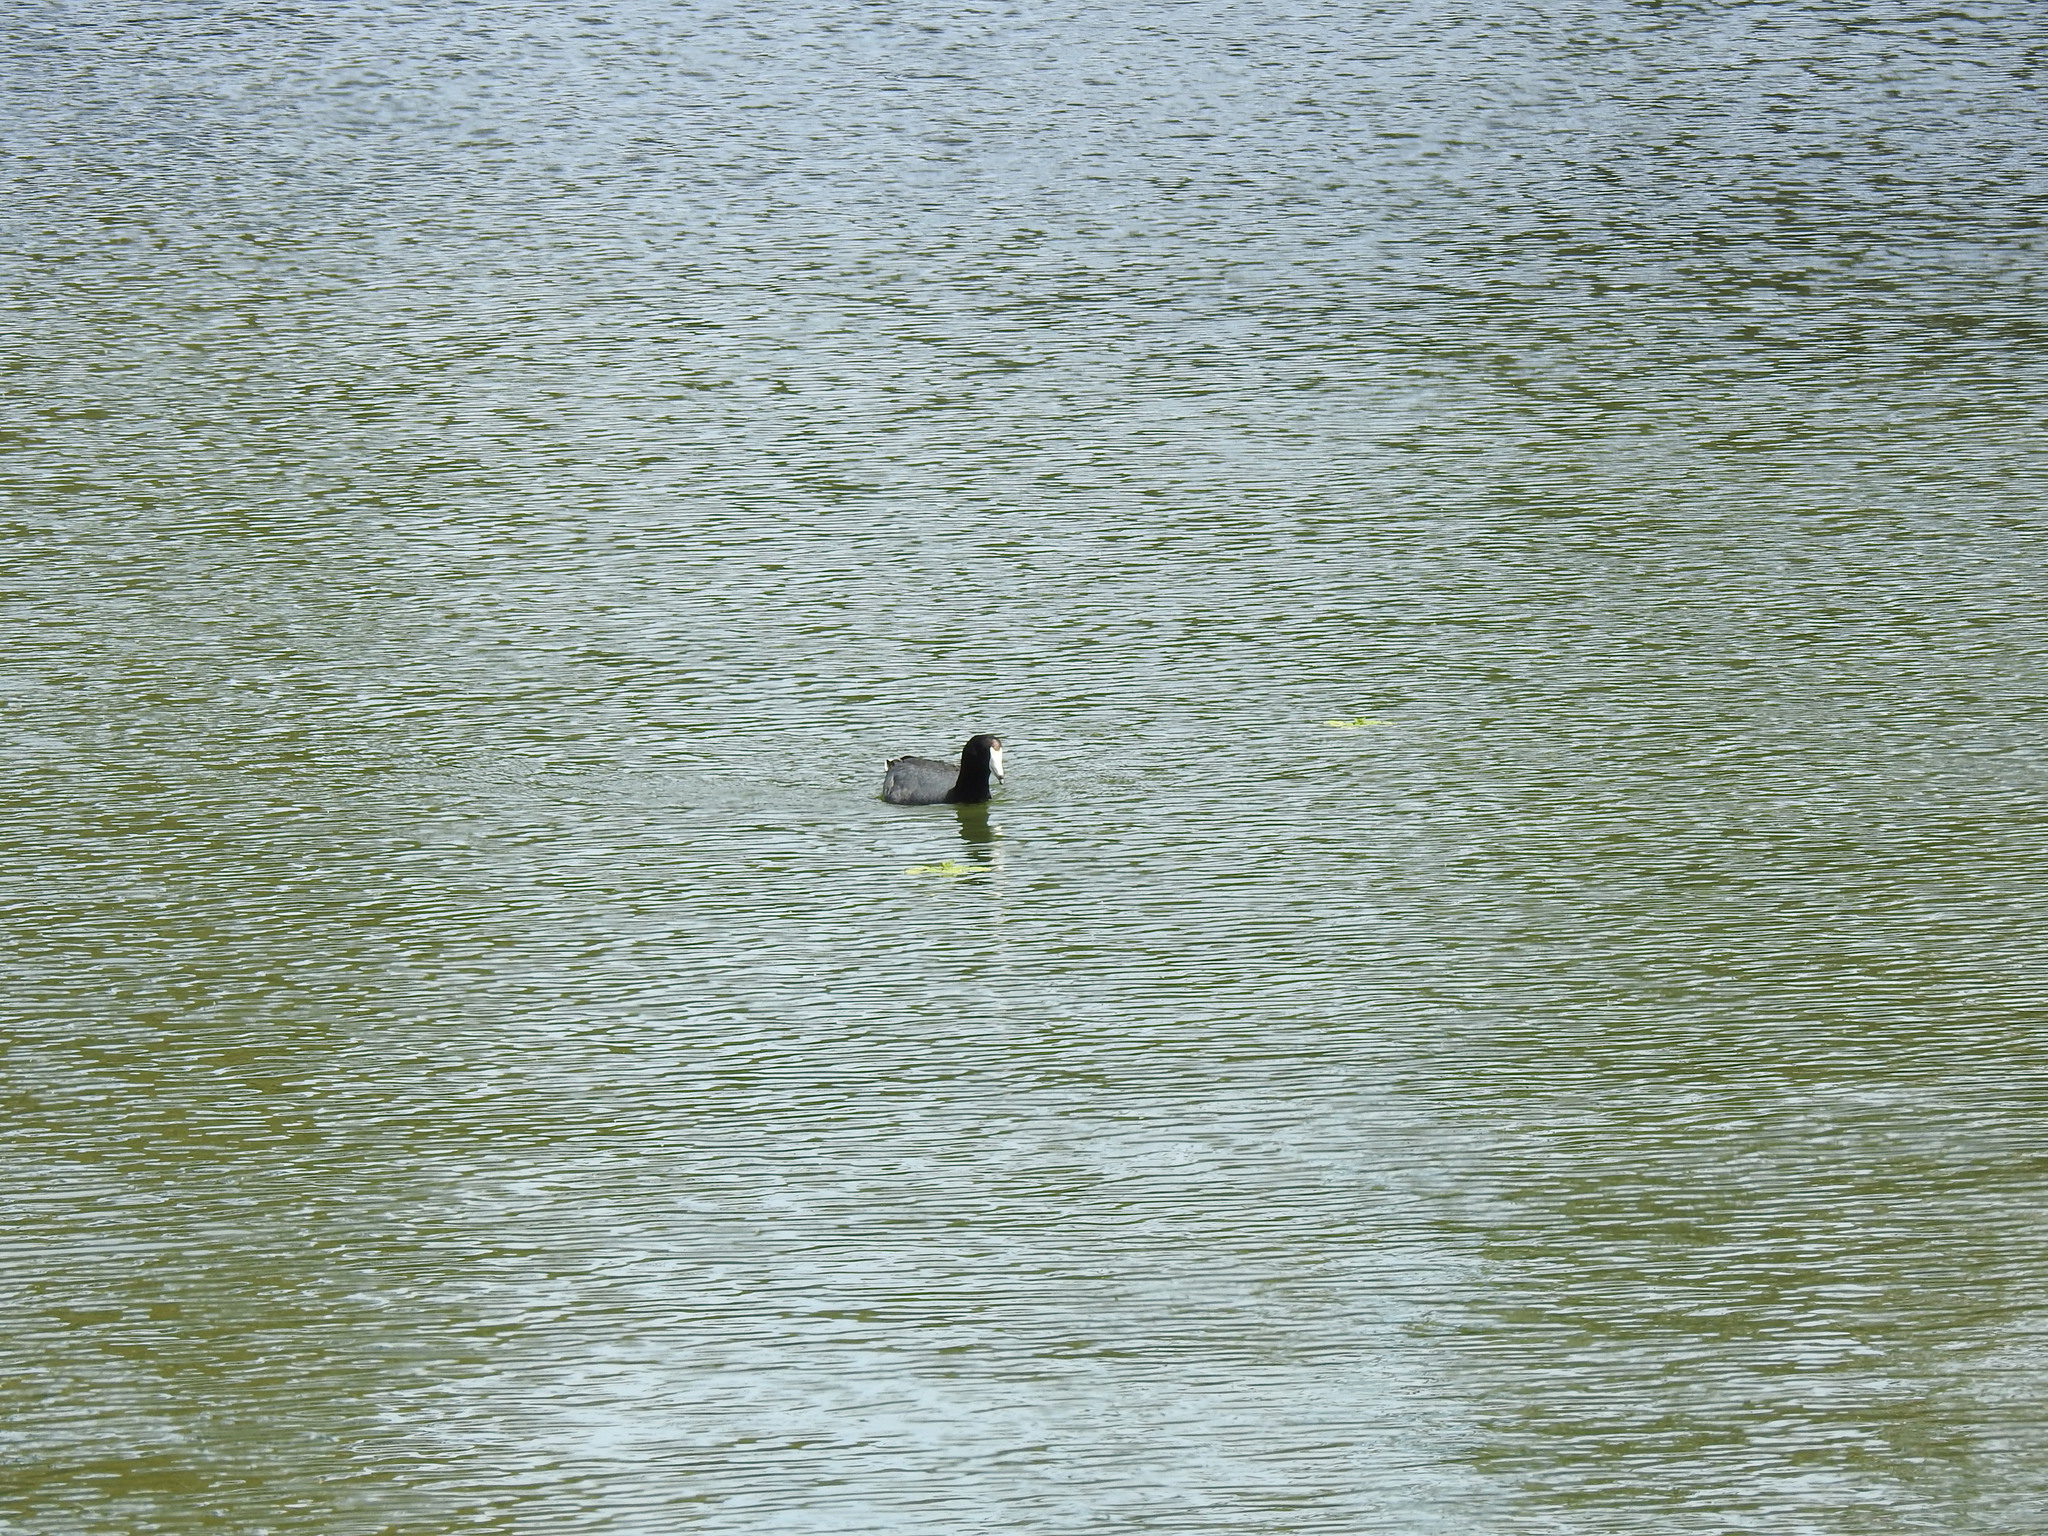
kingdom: Animalia
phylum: Chordata
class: Aves
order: Gruiformes
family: Rallidae
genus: Fulica
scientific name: Fulica americana
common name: American coot
